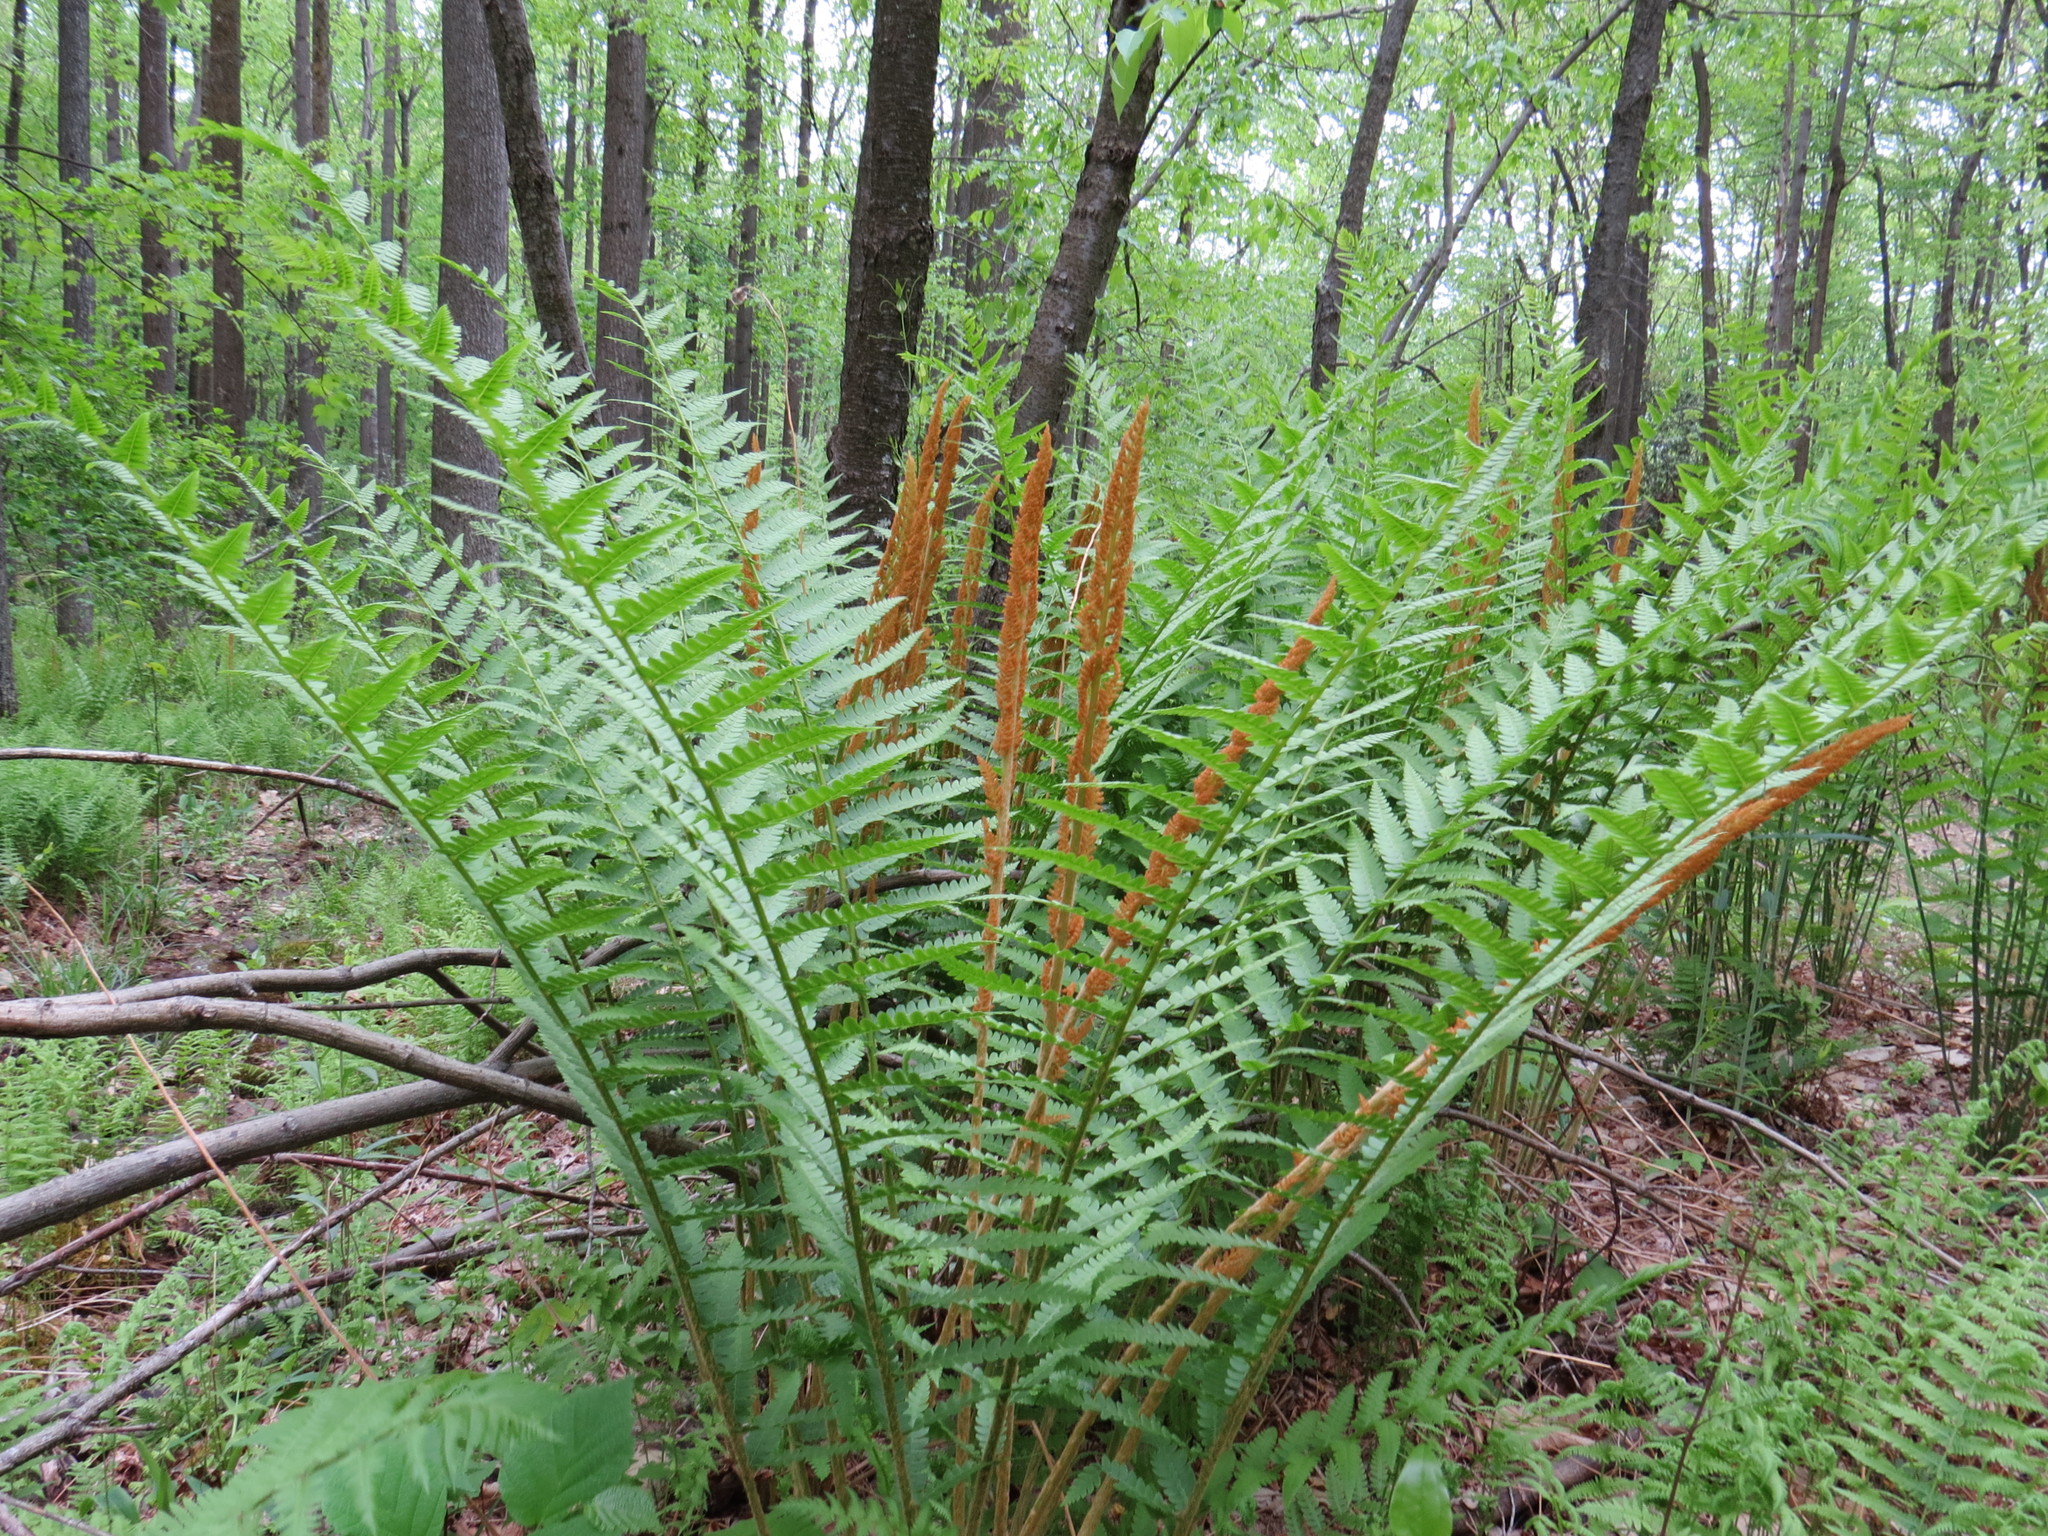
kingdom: Plantae
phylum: Tracheophyta
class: Polypodiopsida
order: Osmundales
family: Osmundaceae
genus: Osmundastrum
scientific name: Osmundastrum cinnamomeum
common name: Cinnamon fern
